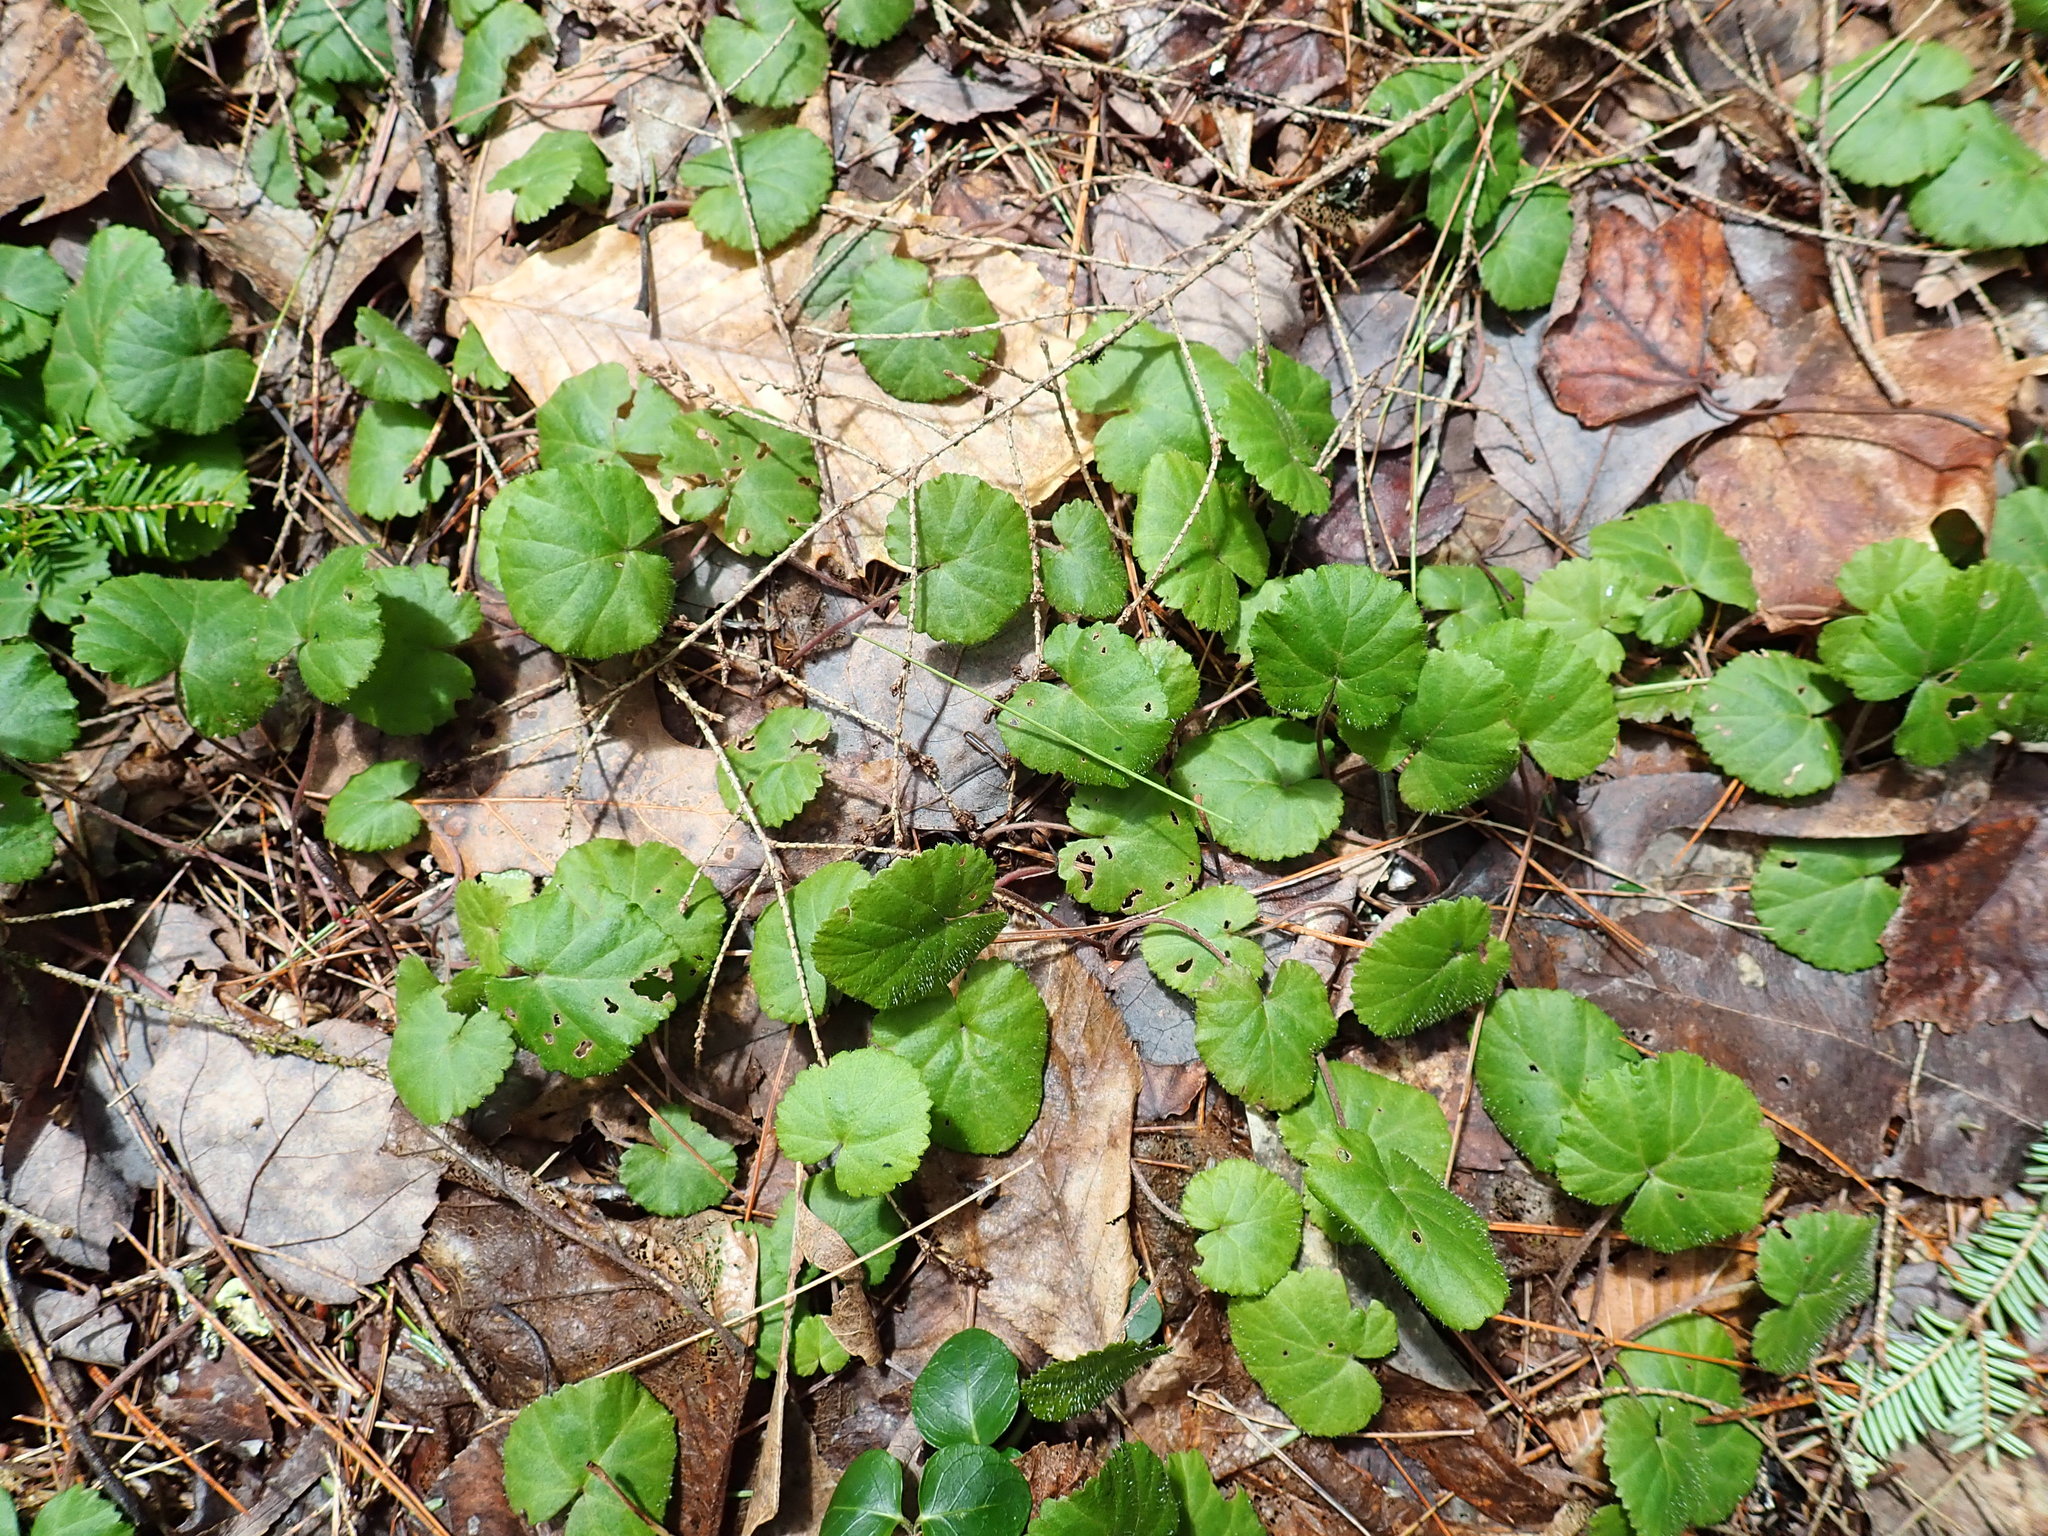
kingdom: Plantae
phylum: Tracheophyta
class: Magnoliopsida
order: Rosales
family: Rosaceae
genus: Dalibarda
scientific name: Dalibarda repens
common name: Dewdrop
